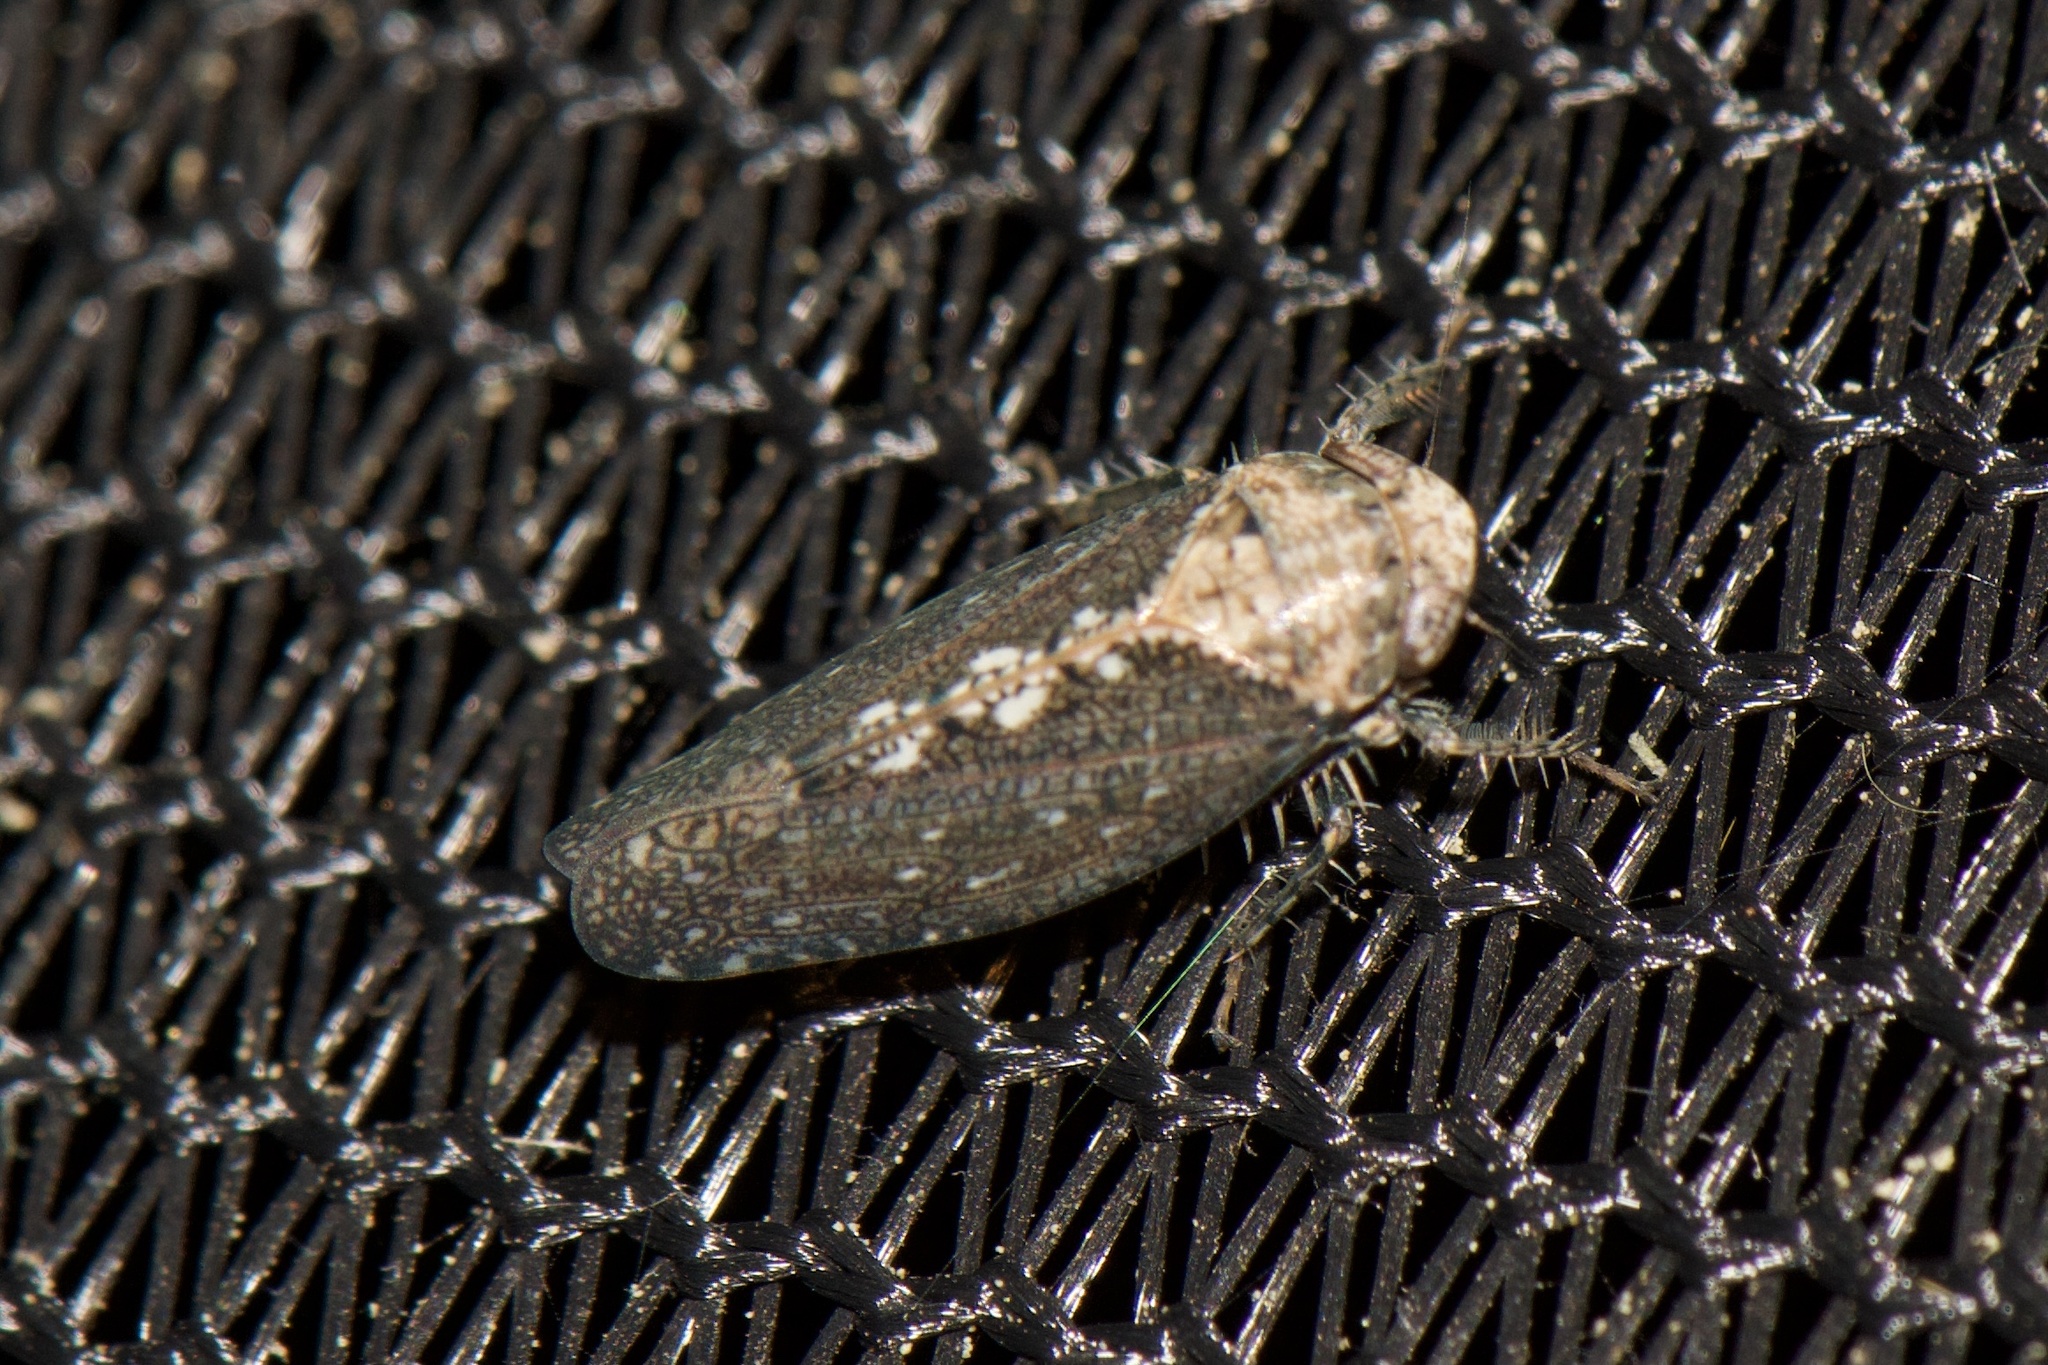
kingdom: Animalia
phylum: Arthropoda
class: Insecta
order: Hemiptera
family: Cicadellidae
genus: Excultanus
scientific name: Excultanus excultus
